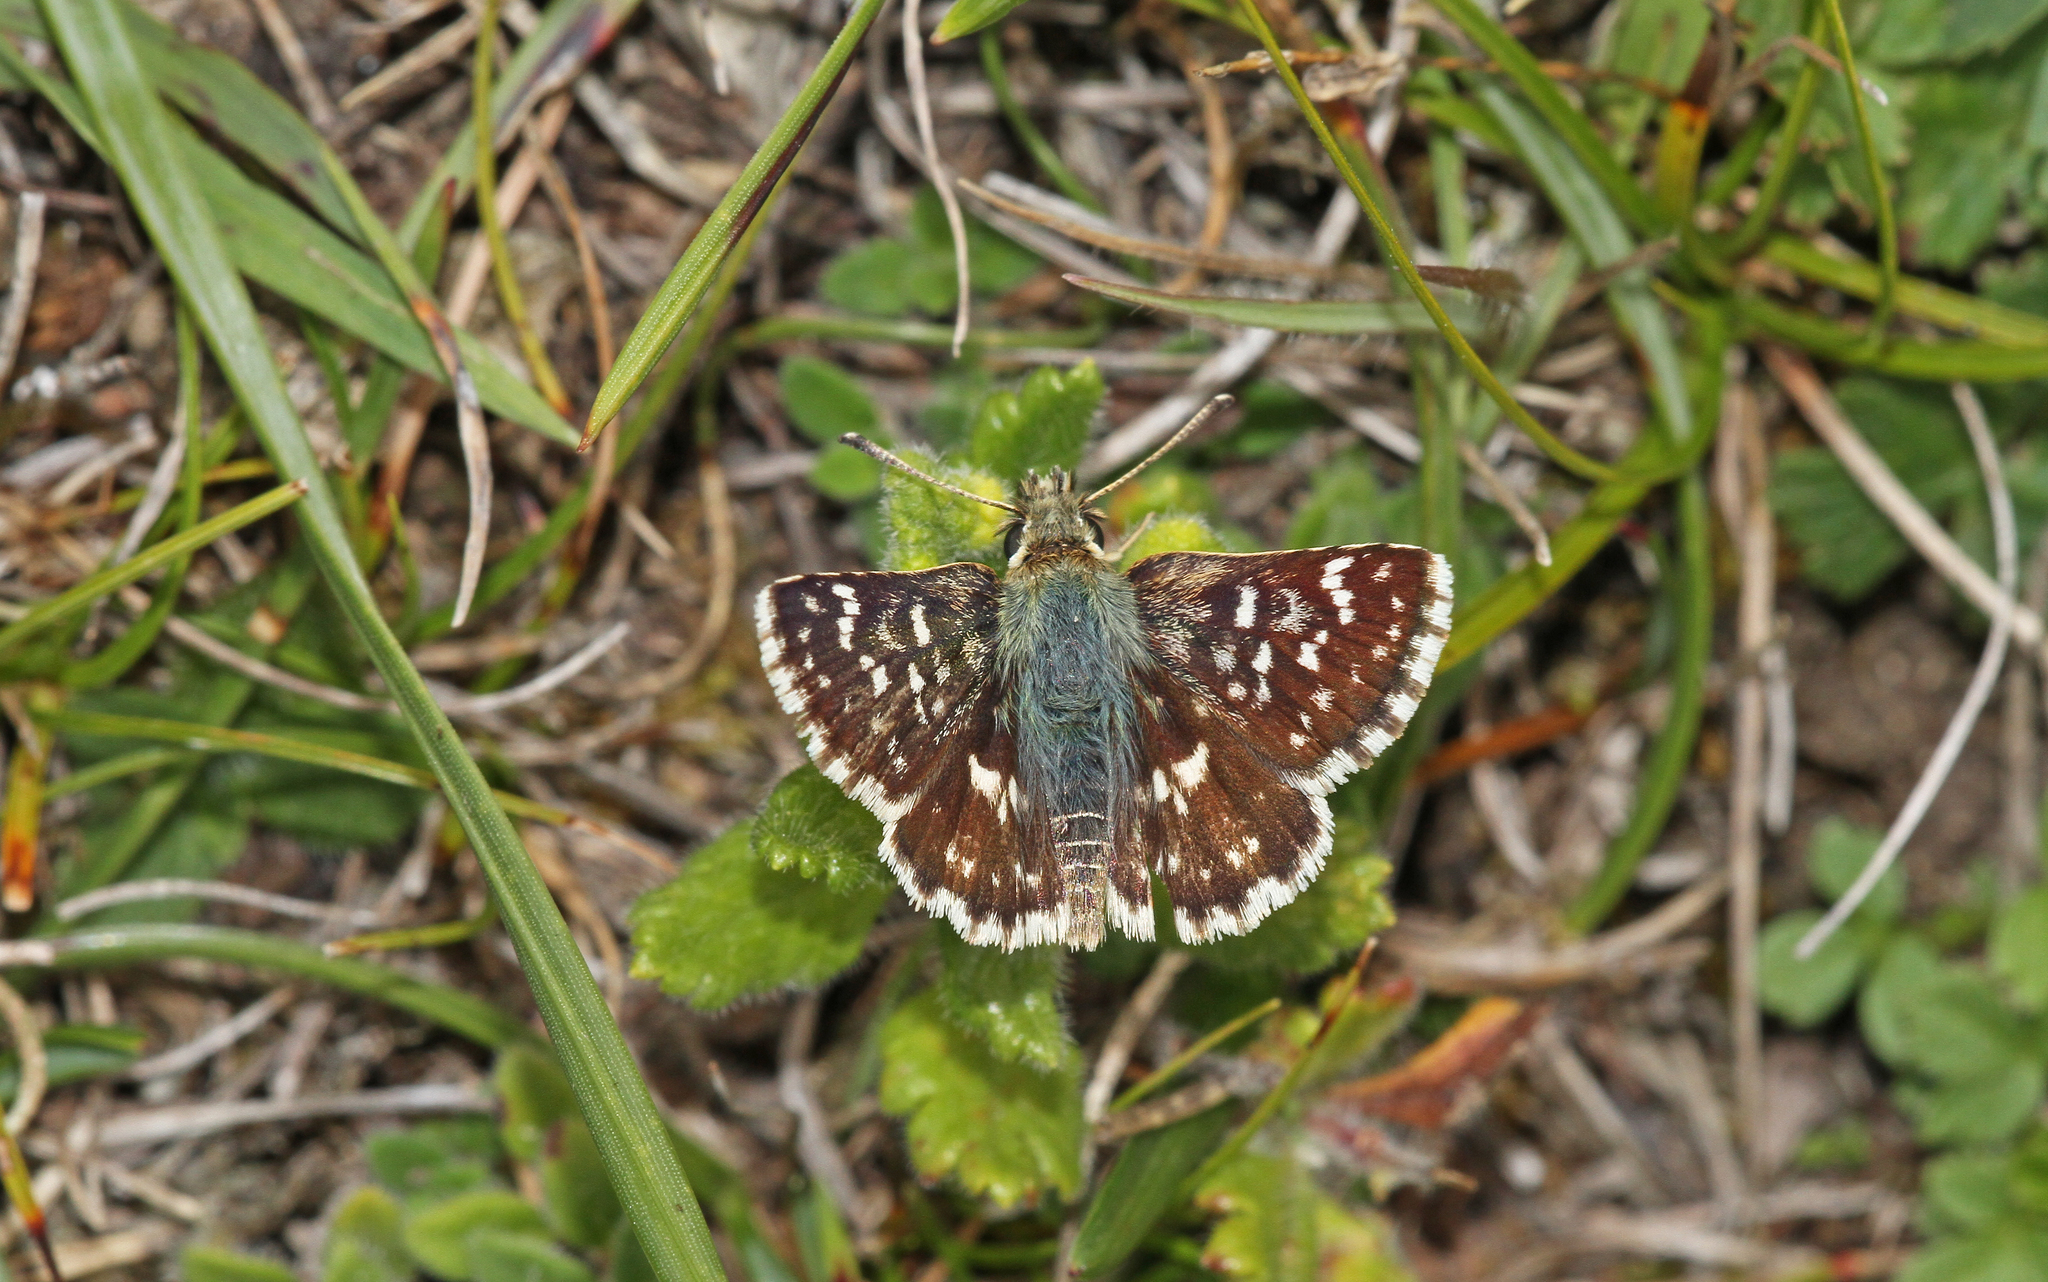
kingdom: Animalia
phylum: Arthropoda
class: Insecta
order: Lepidoptera
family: Hesperiidae
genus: Spialia
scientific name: Spialia sertorius
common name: Red underwing skipper
